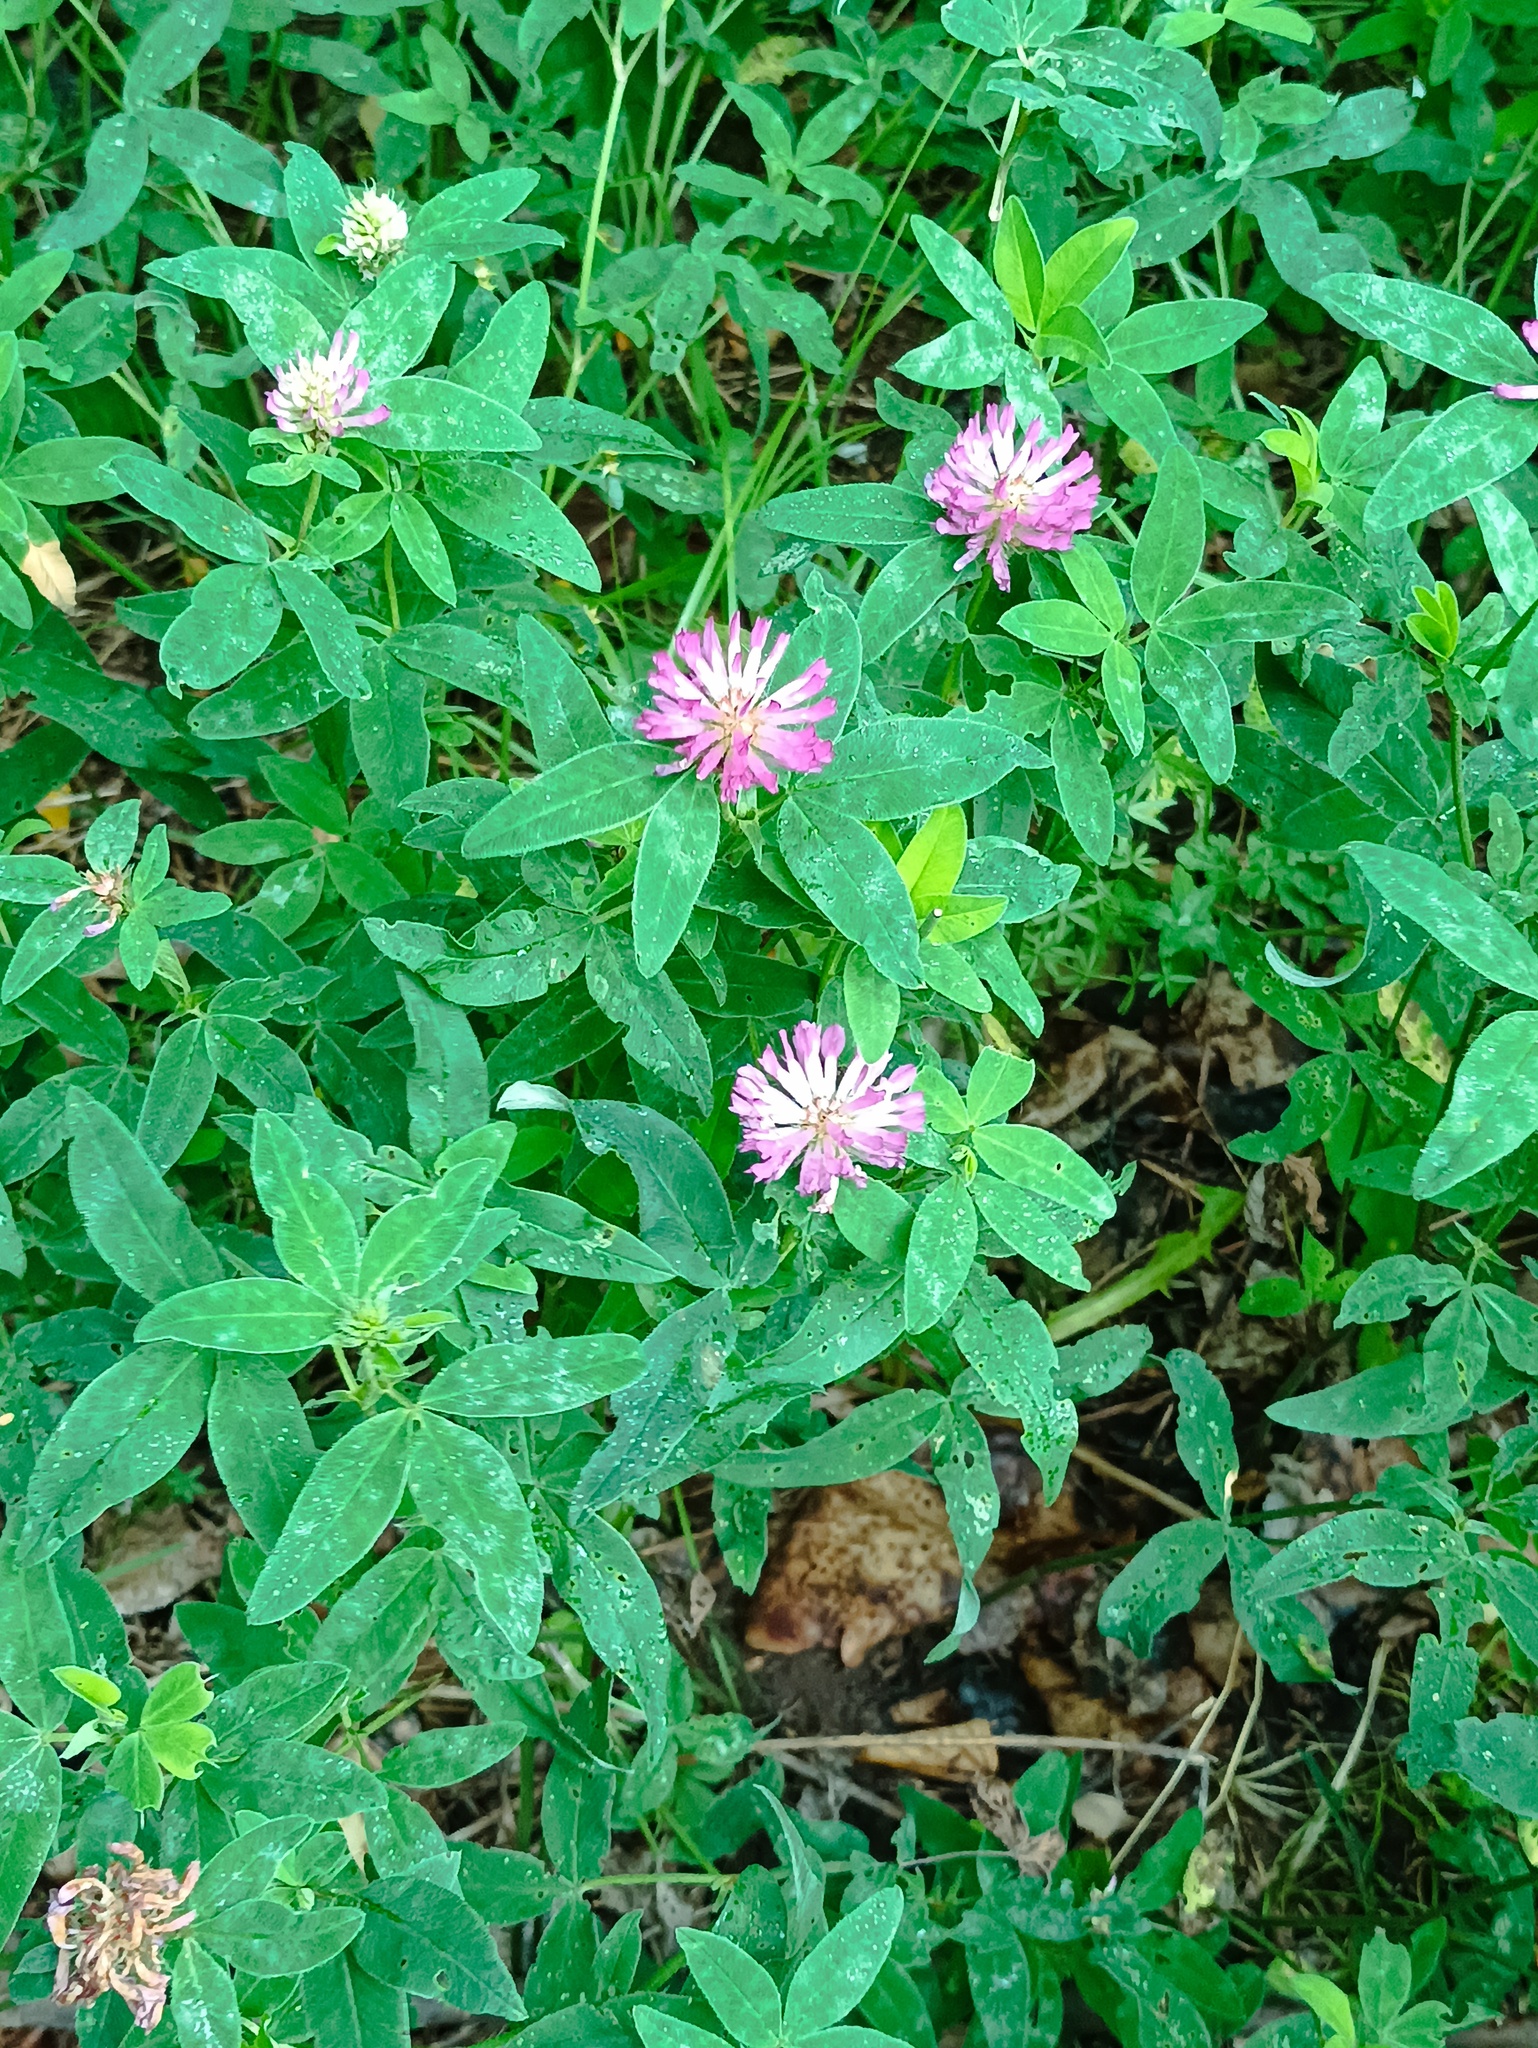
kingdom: Plantae
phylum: Tracheophyta
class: Magnoliopsida
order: Fabales
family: Fabaceae
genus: Trifolium
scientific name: Trifolium medium
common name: Zigzag clover
